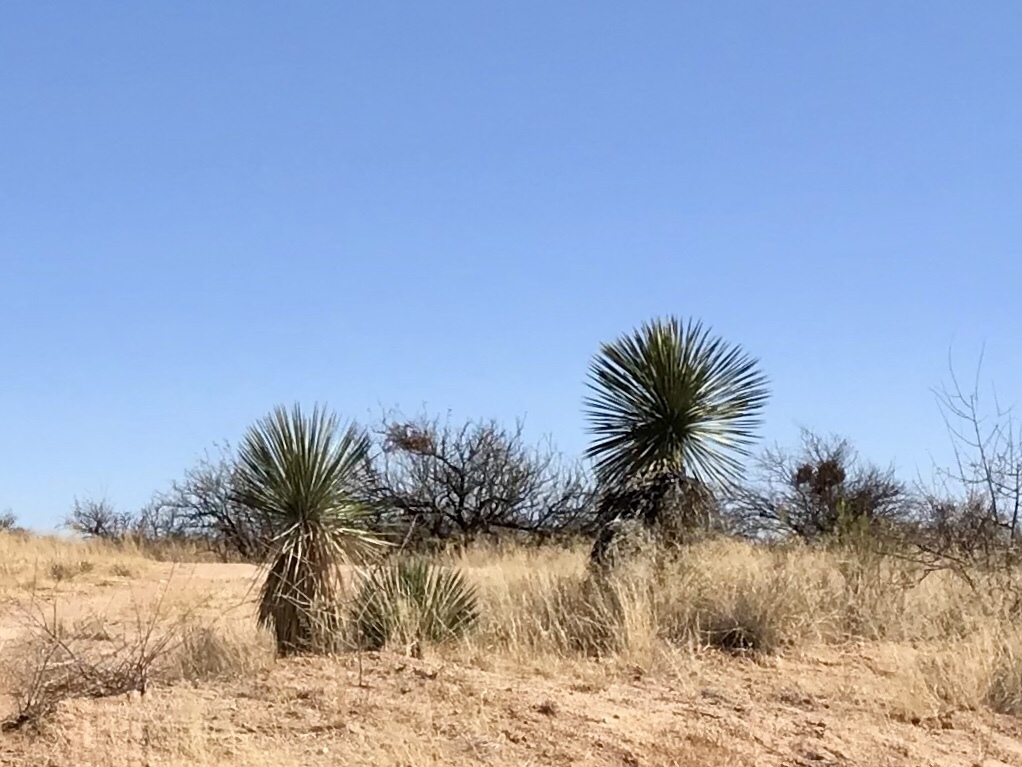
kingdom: Plantae
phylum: Tracheophyta
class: Liliopsida
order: Asparagales
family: Asparagaceae
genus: Yucca
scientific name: Yucca elata
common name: Palmella
